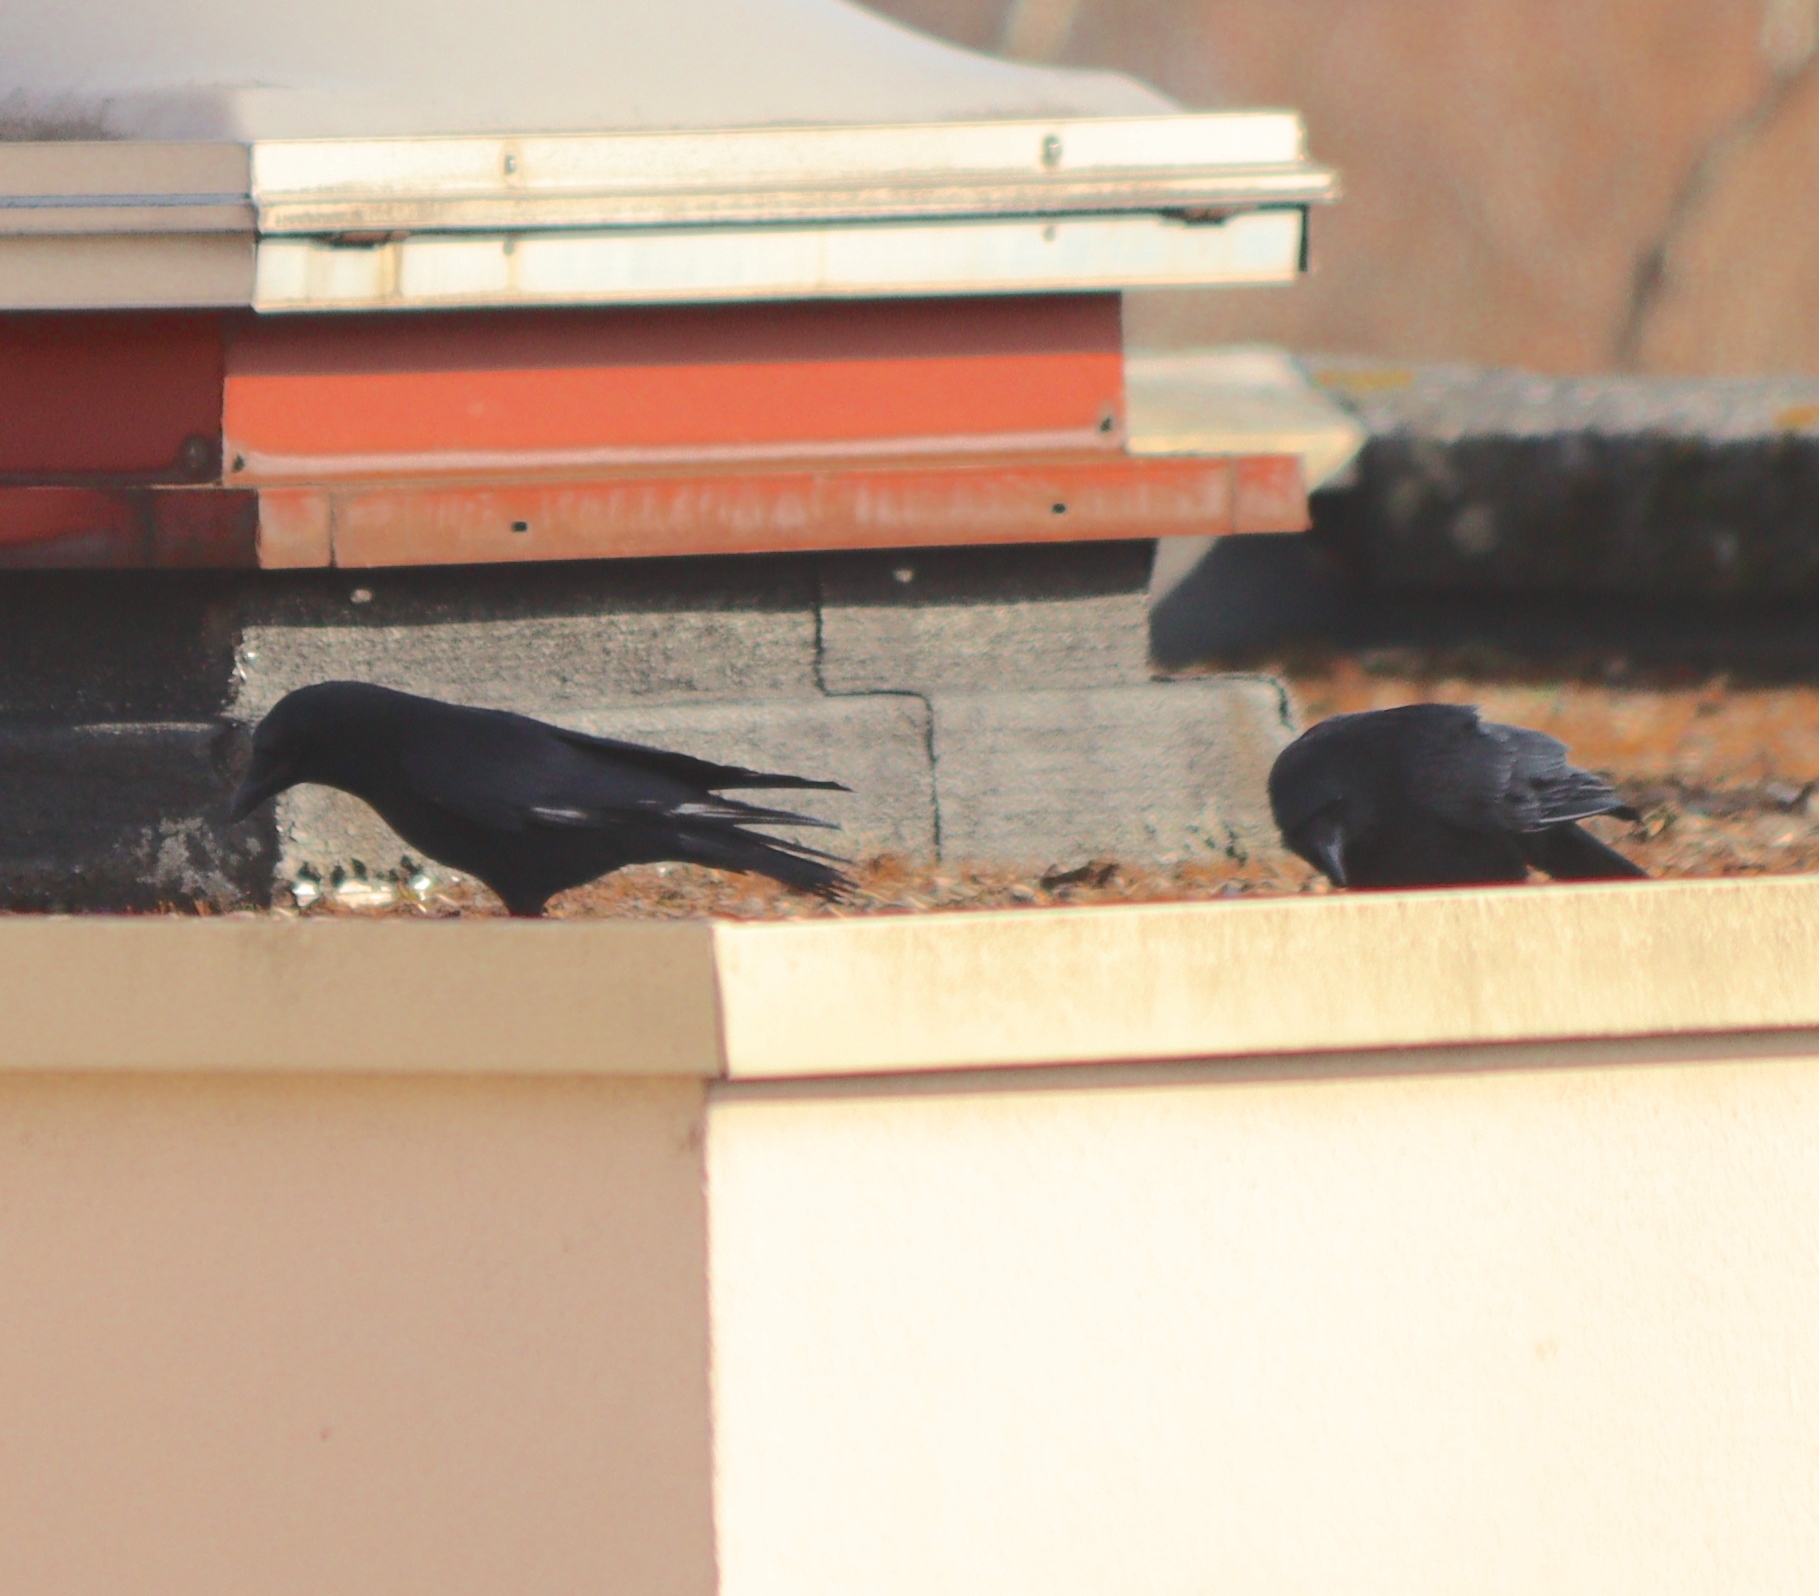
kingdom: Animalia
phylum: Chordata
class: Aves
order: Passeriformes
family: Corvidae
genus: Corvus
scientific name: Corvus corone
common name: Carrion crow
